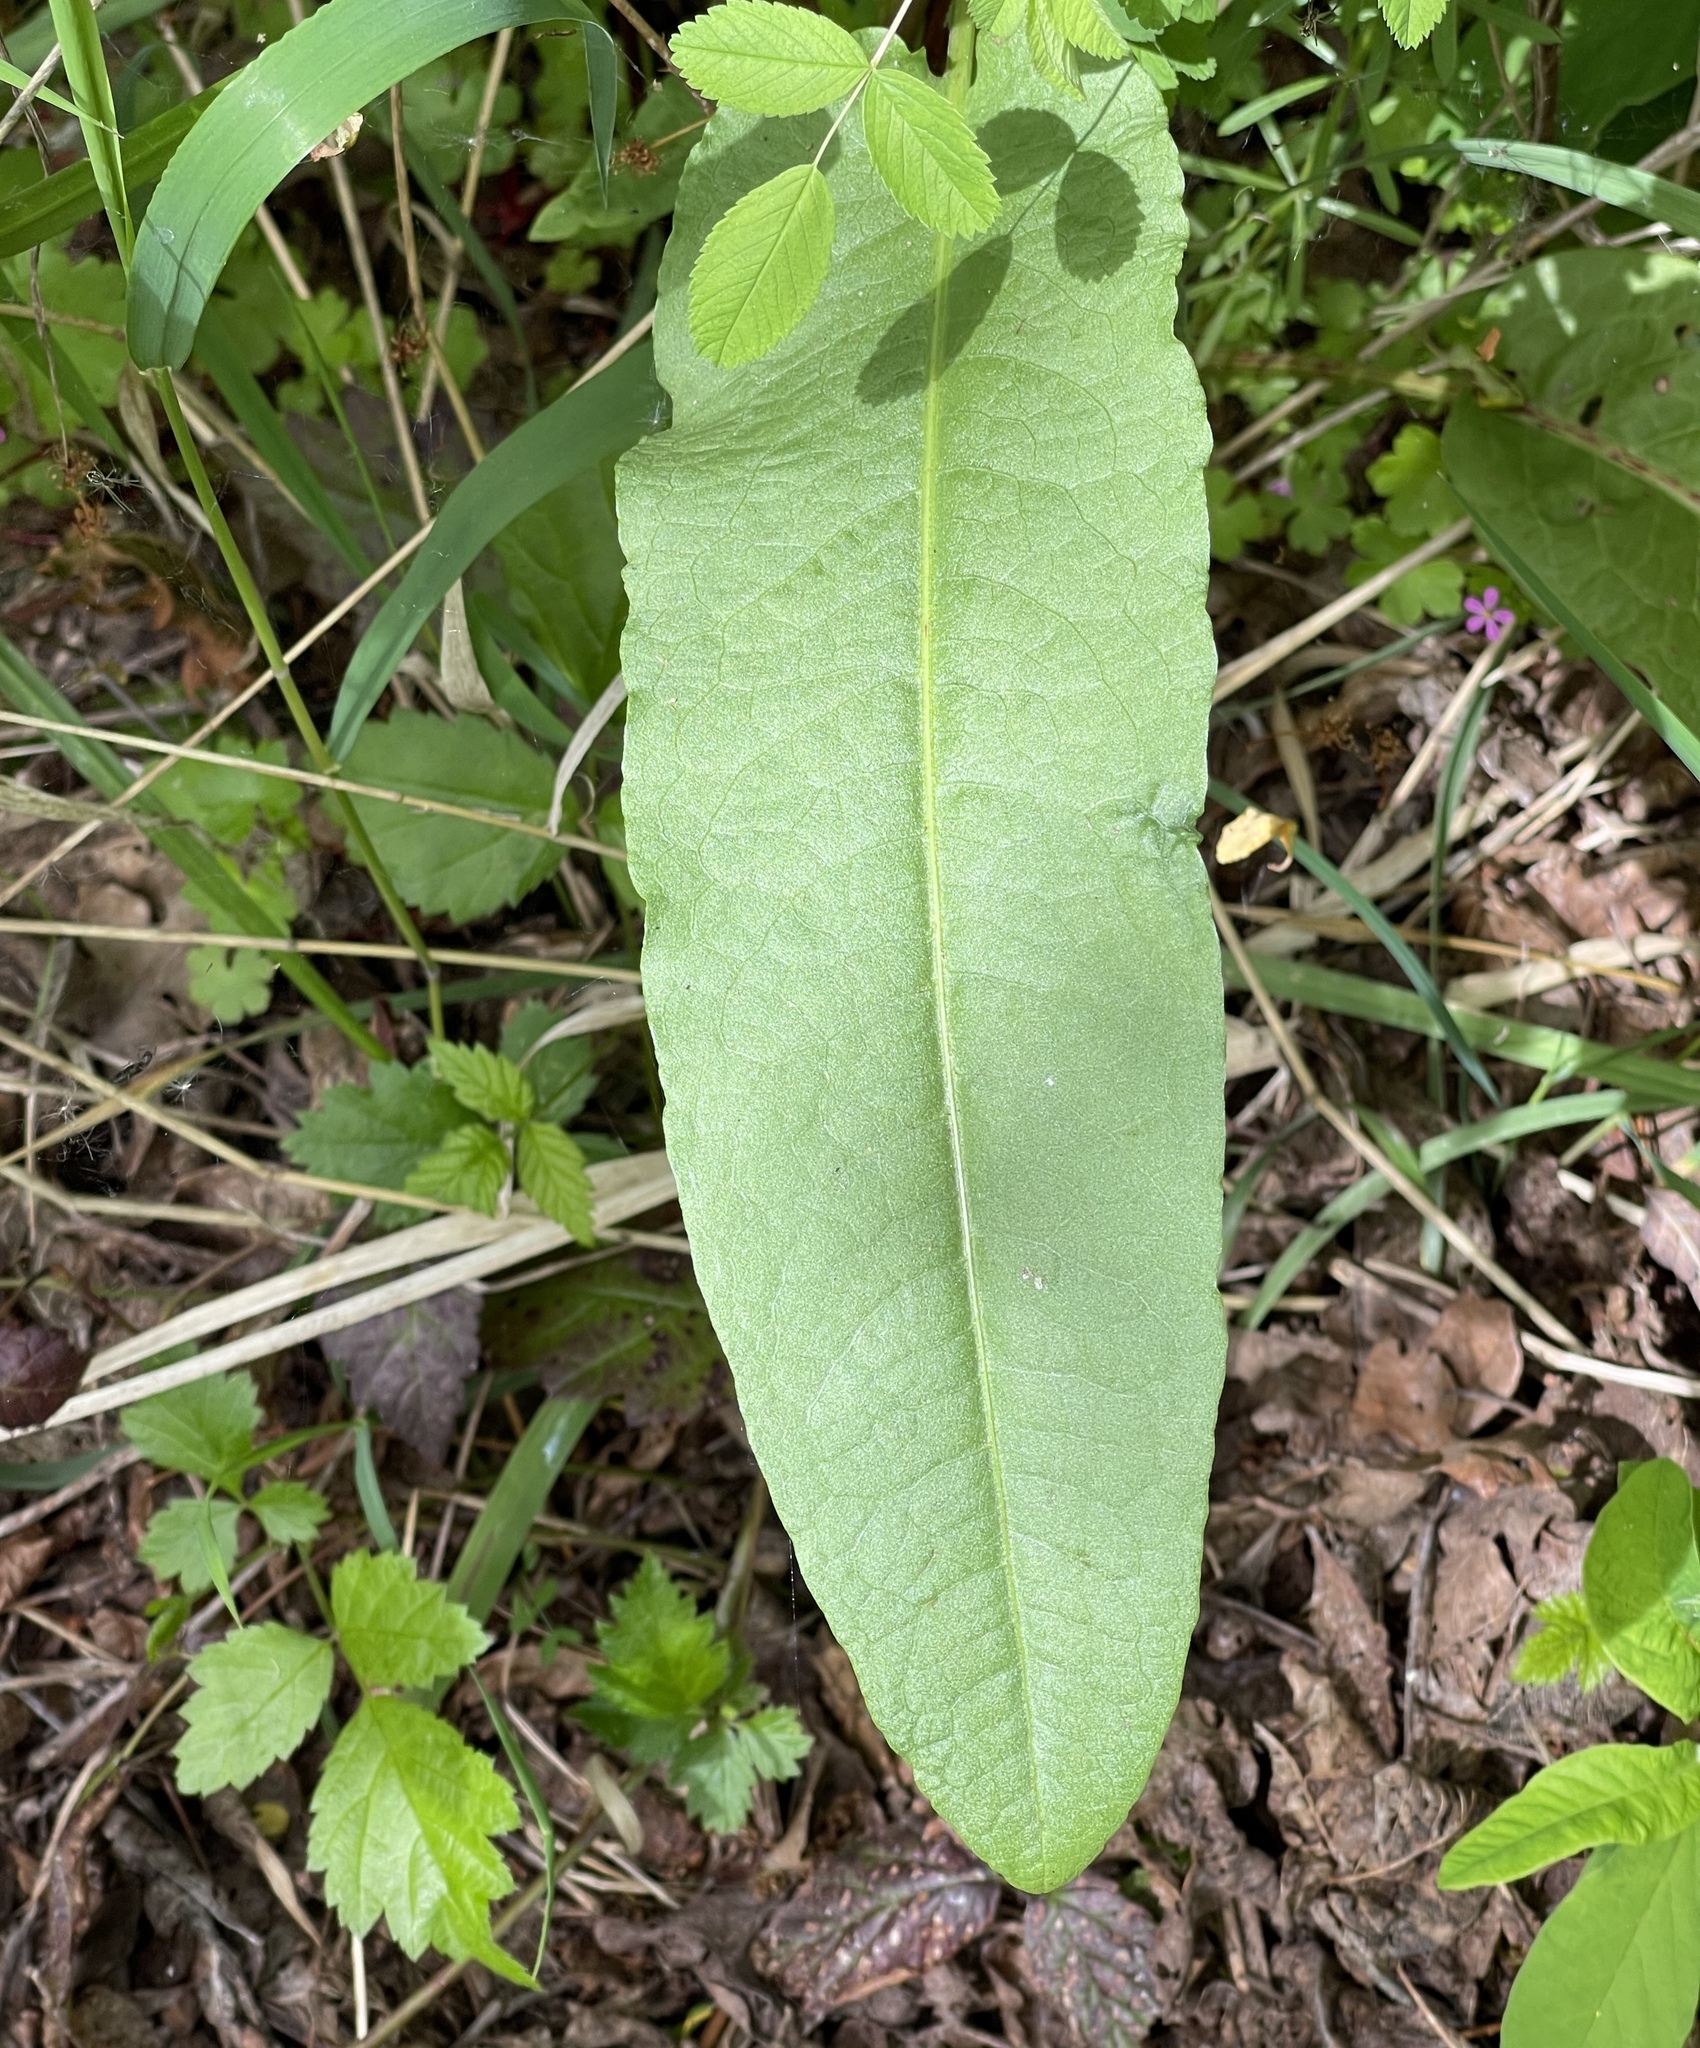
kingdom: Plantae
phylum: Tracheophyta
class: Magnoliopsida
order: Caryophyllales
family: Polygonaceae
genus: Rumex
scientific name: Rumex crispus
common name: Curled dock
